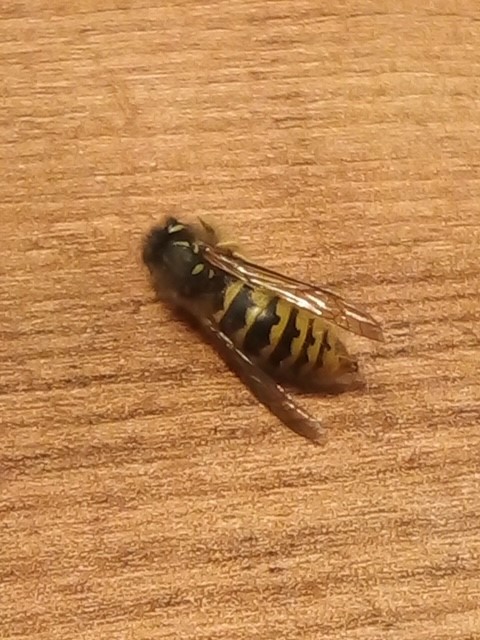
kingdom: Animalia
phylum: Arthropoda
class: Insecta
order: Hymenoptera
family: Vespidae
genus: Vespula
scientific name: Vespula germanica
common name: German wasp
